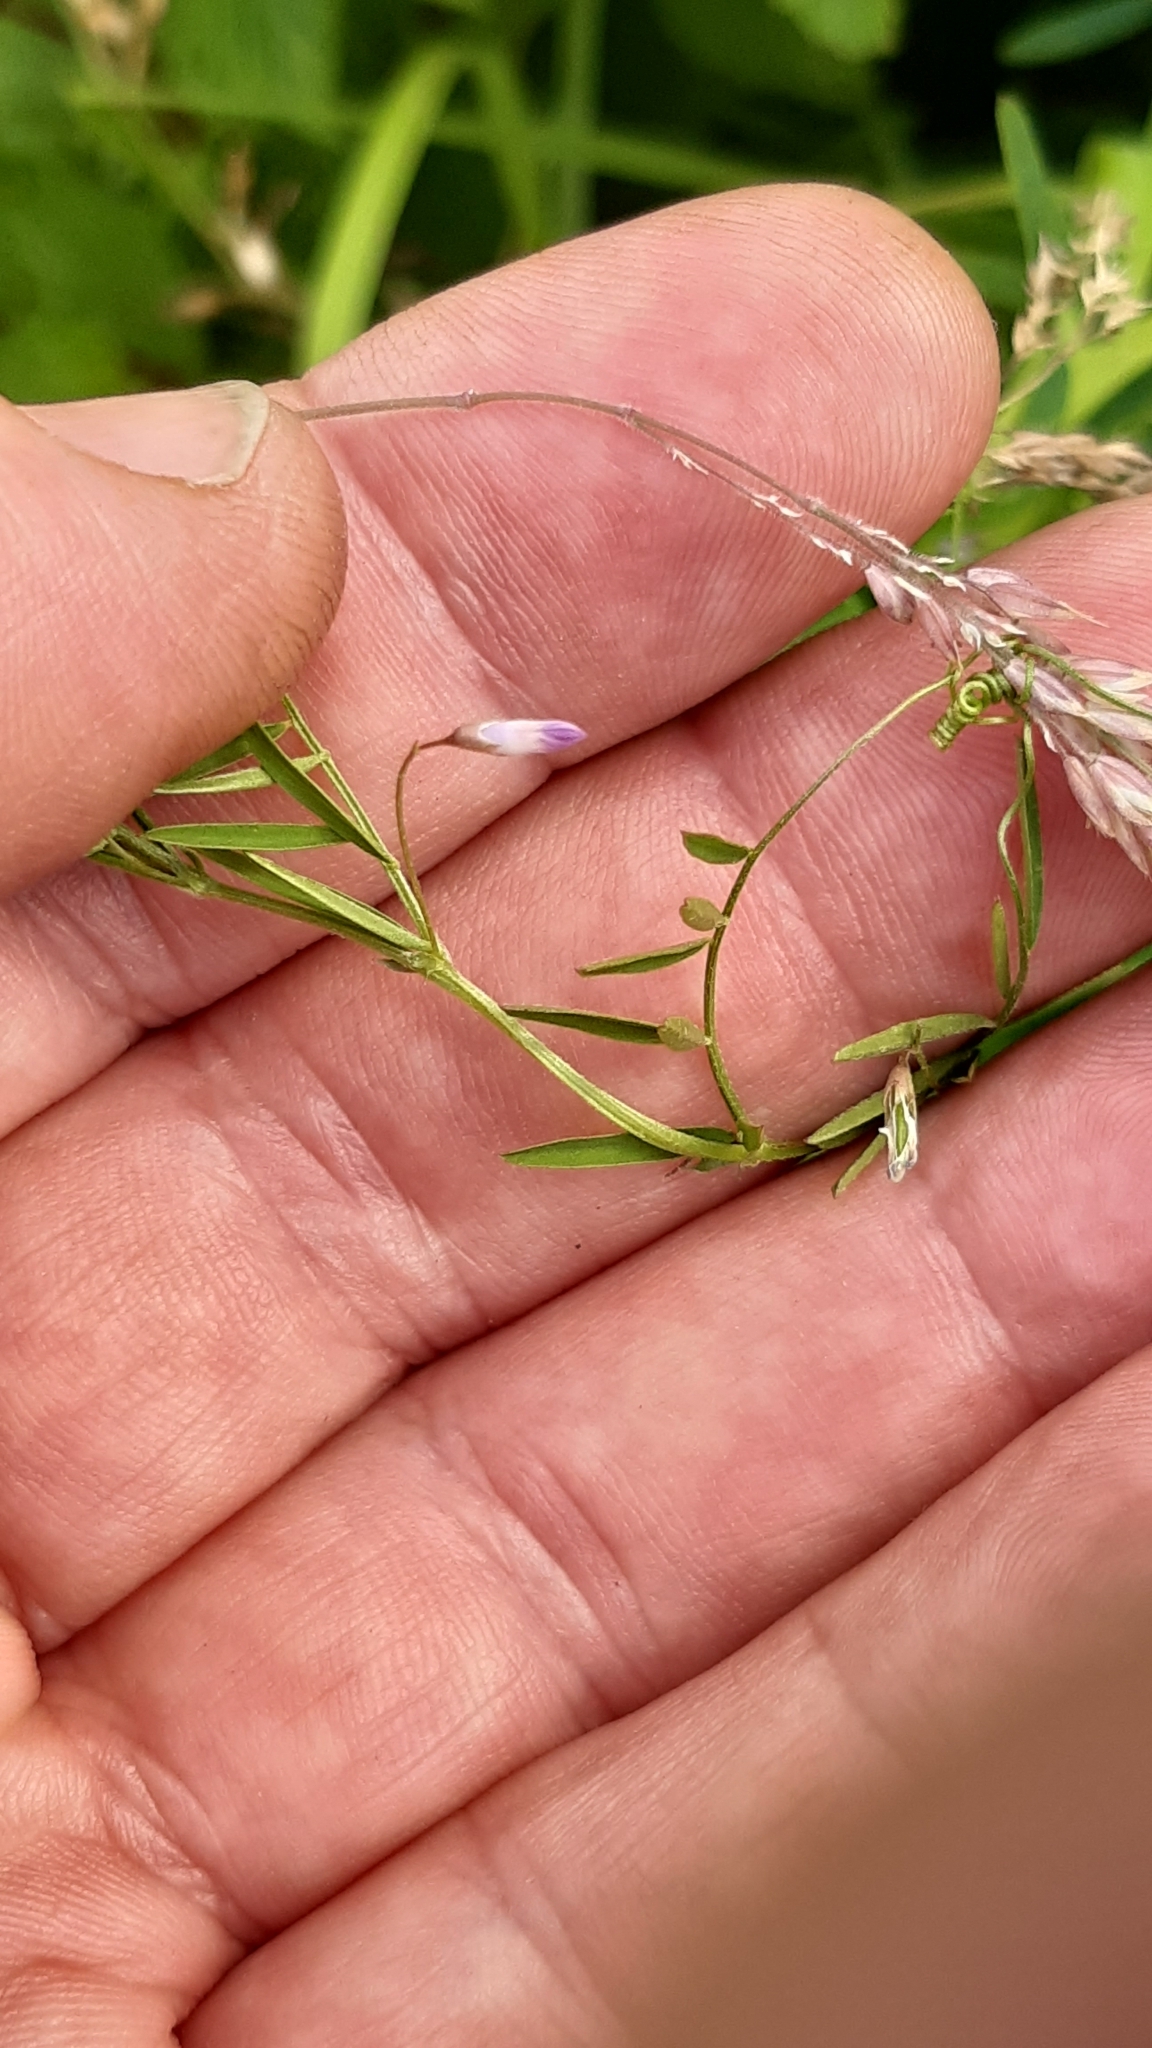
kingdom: Plantae
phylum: Tracheophyta
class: Magnoliopsida
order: Fabales
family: Fabaceae
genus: Vicia
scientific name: Vicia tetrasperma
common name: Smooth tare
